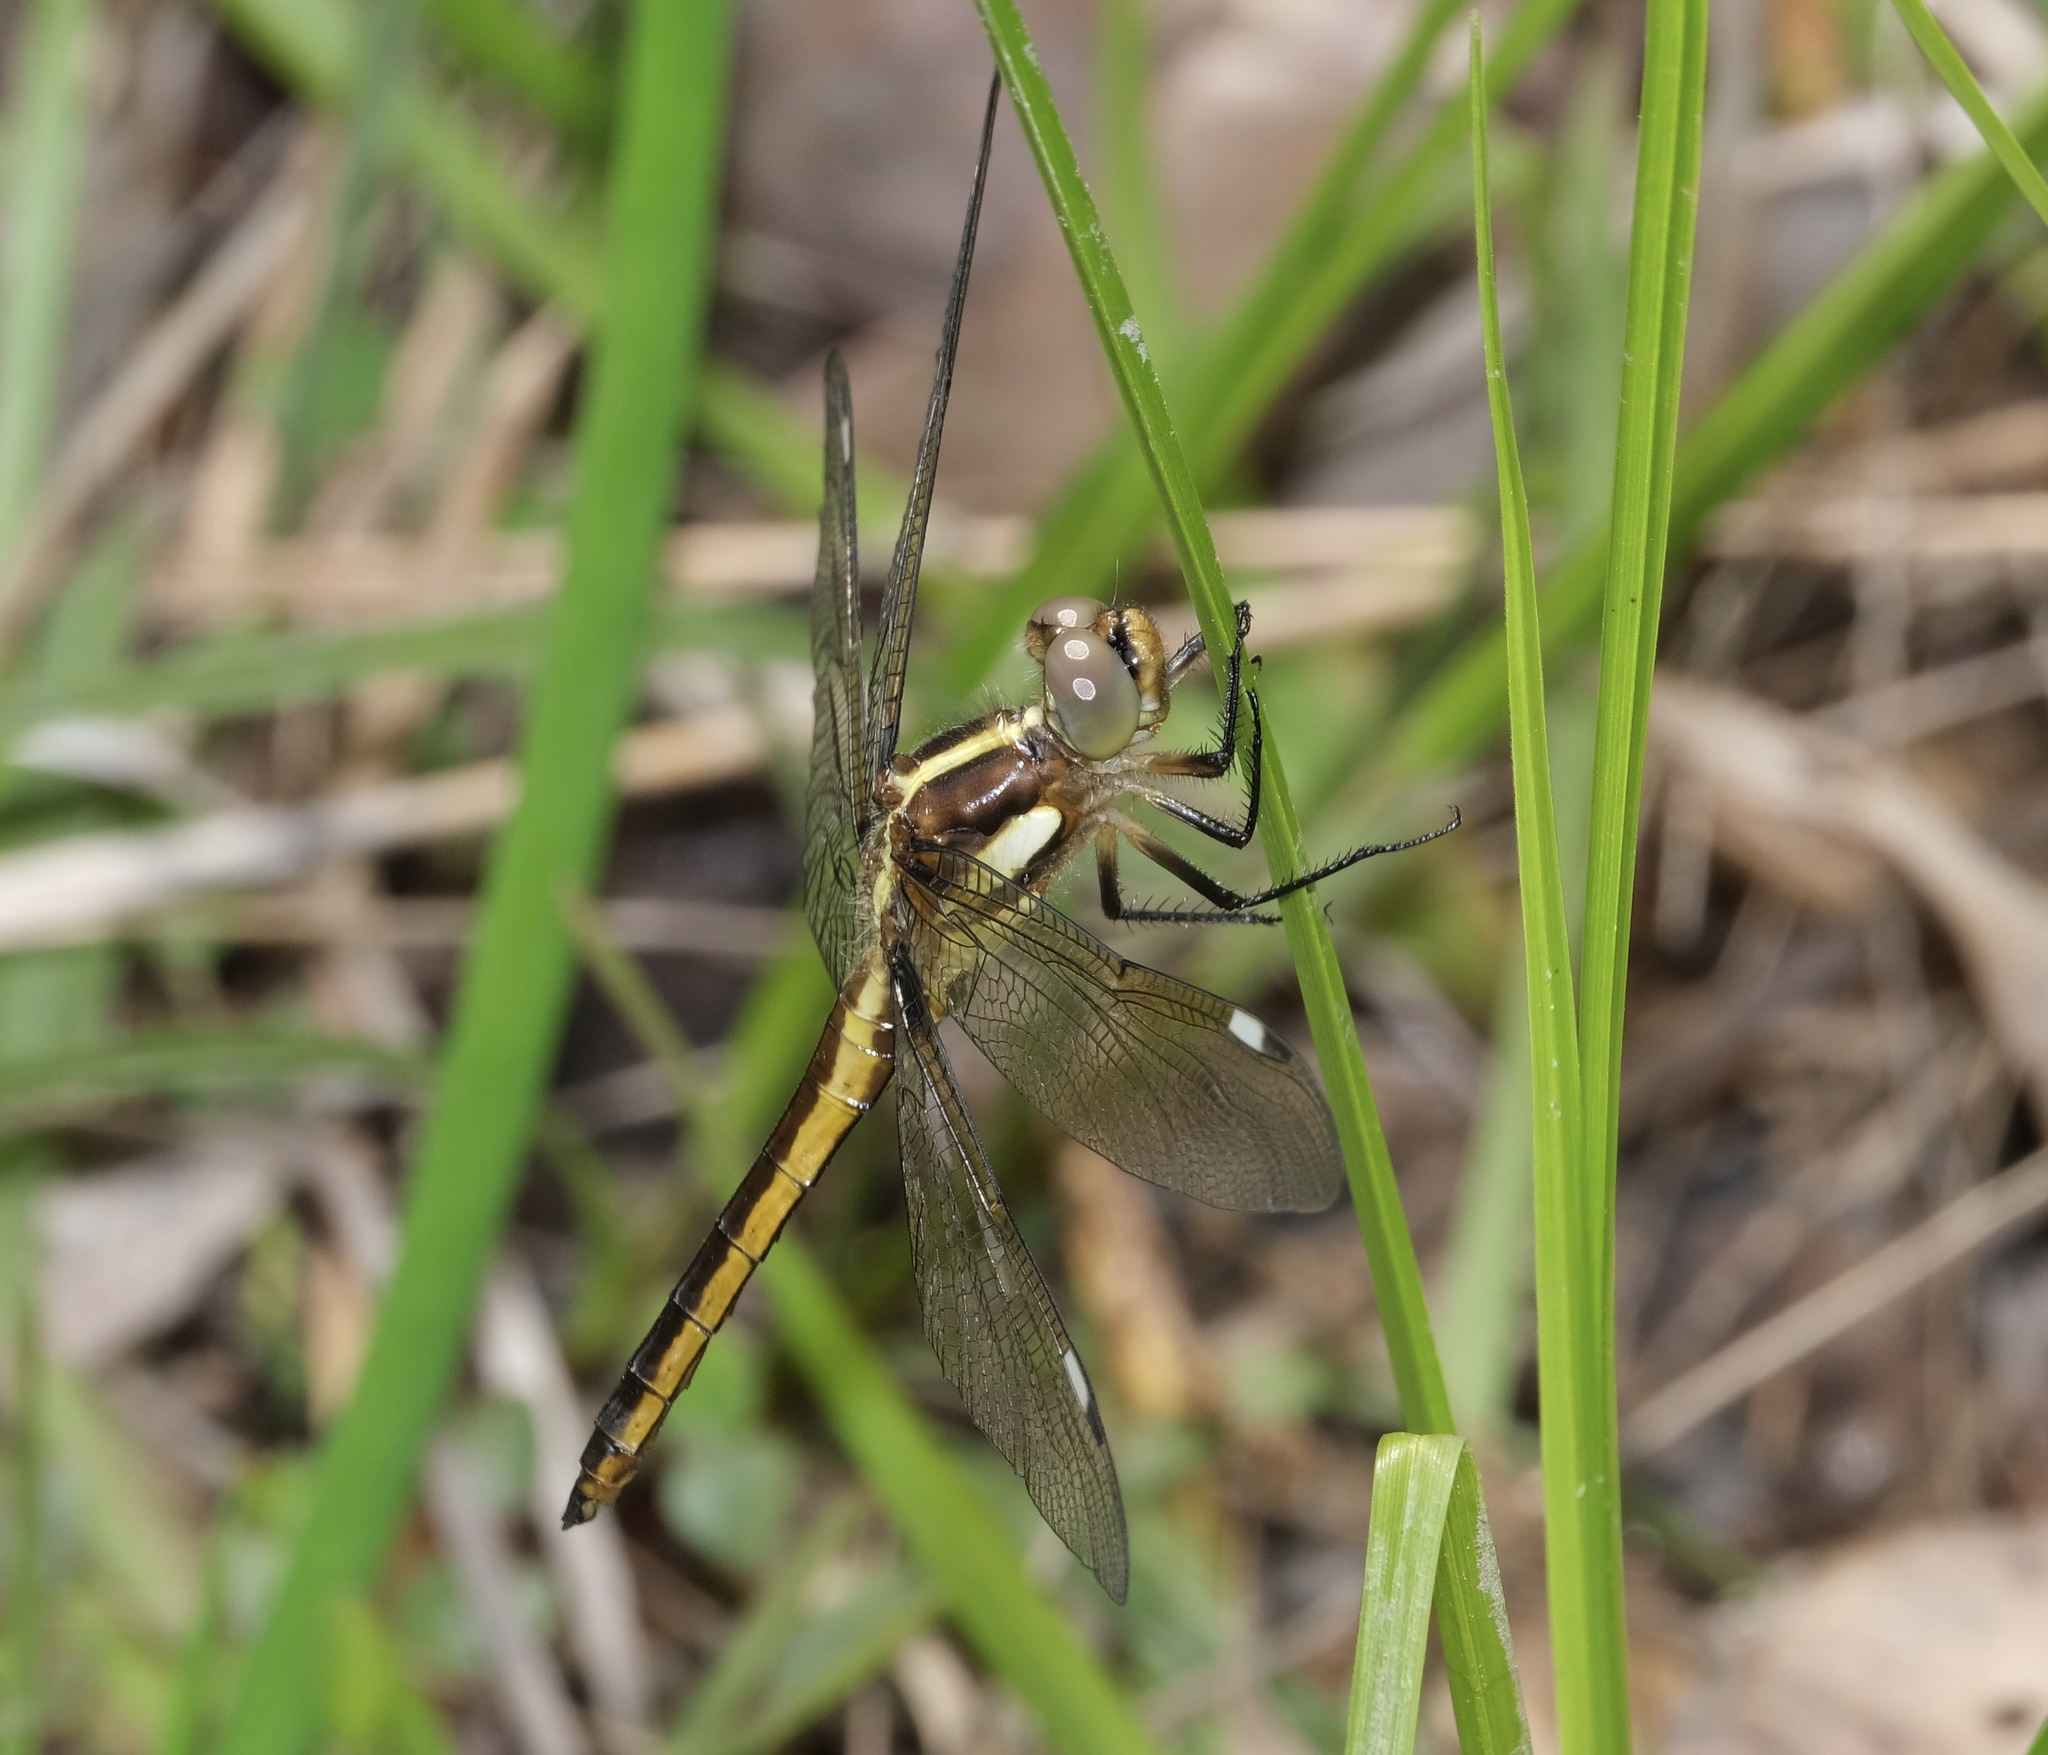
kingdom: Animalia
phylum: Arthropoda
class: Insecta
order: Odonata
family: Libellulidae
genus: Libellula
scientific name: Libellula cyanea
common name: Spangled skimmer
